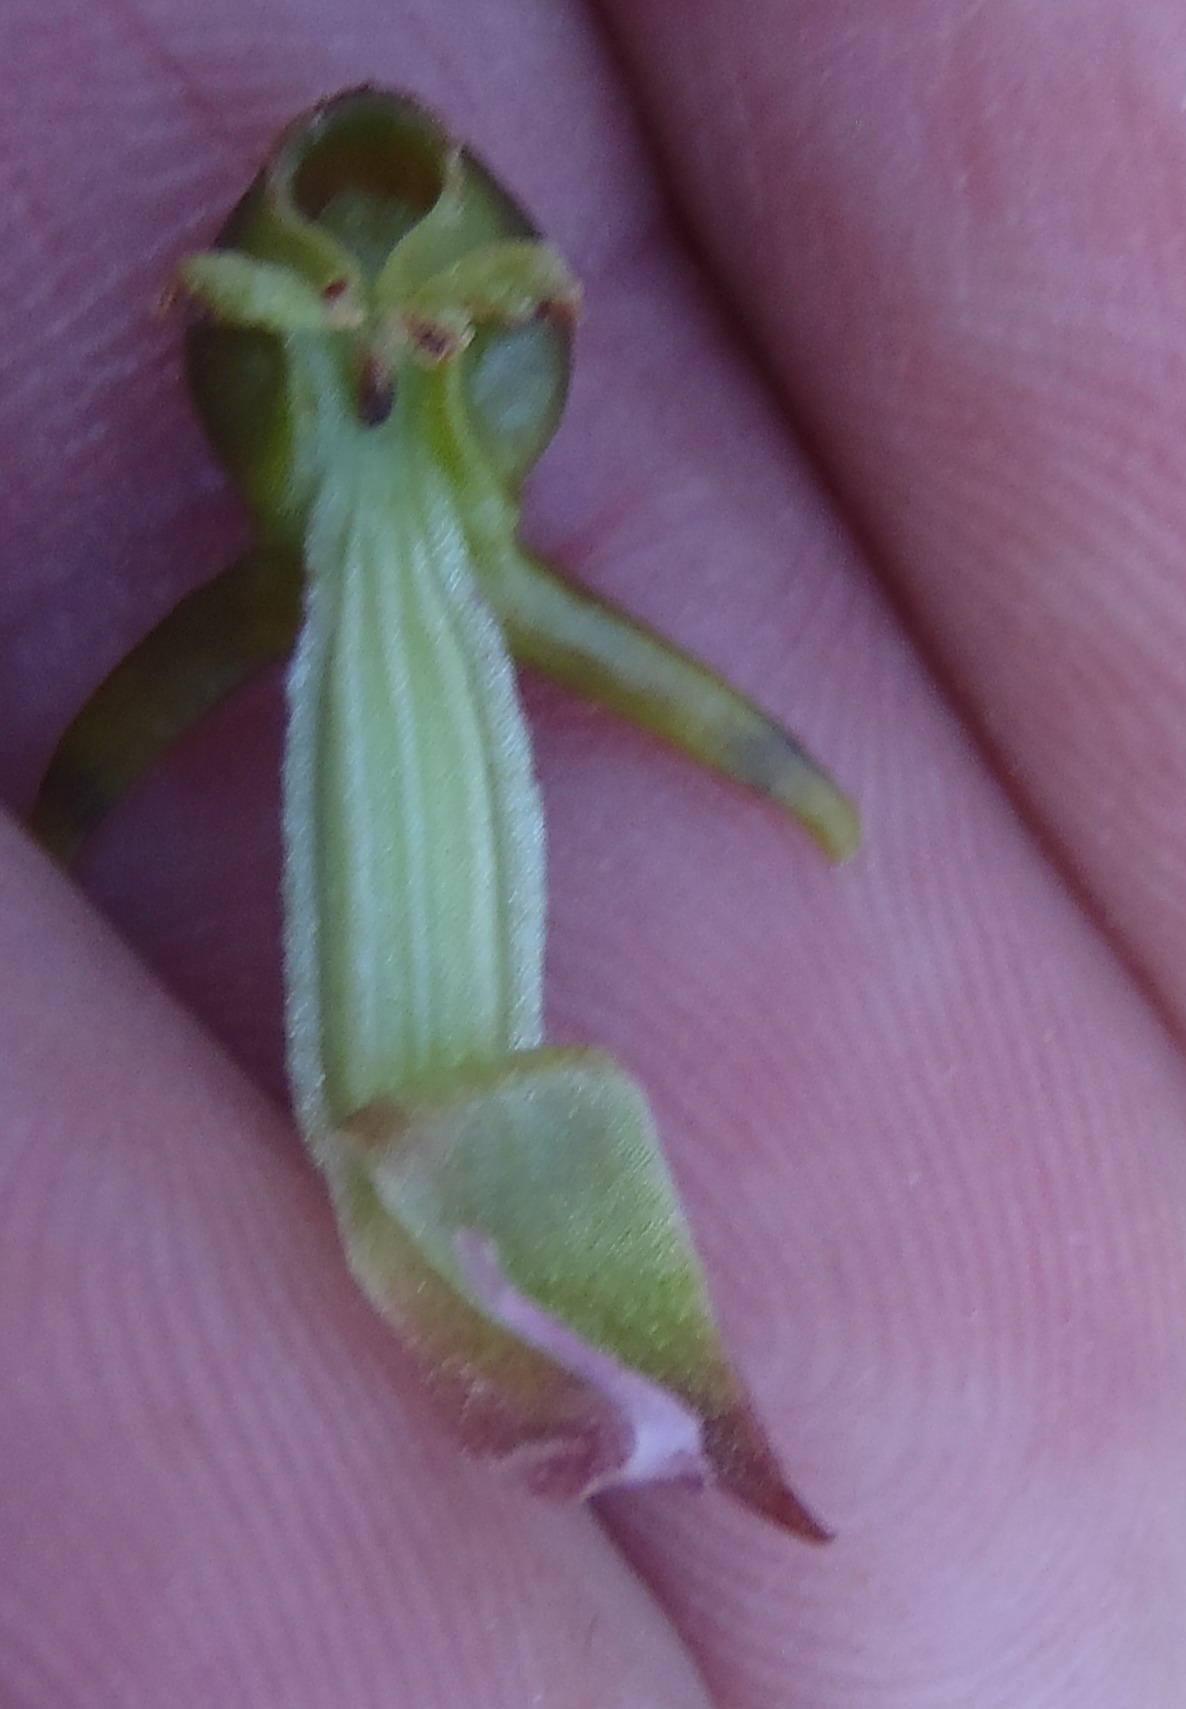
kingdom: Plantae
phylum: Tracheophyta
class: Liliopsida
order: Asparagales
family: Orchidaceae
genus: Satyrium
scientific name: Satyrium parviflorum
